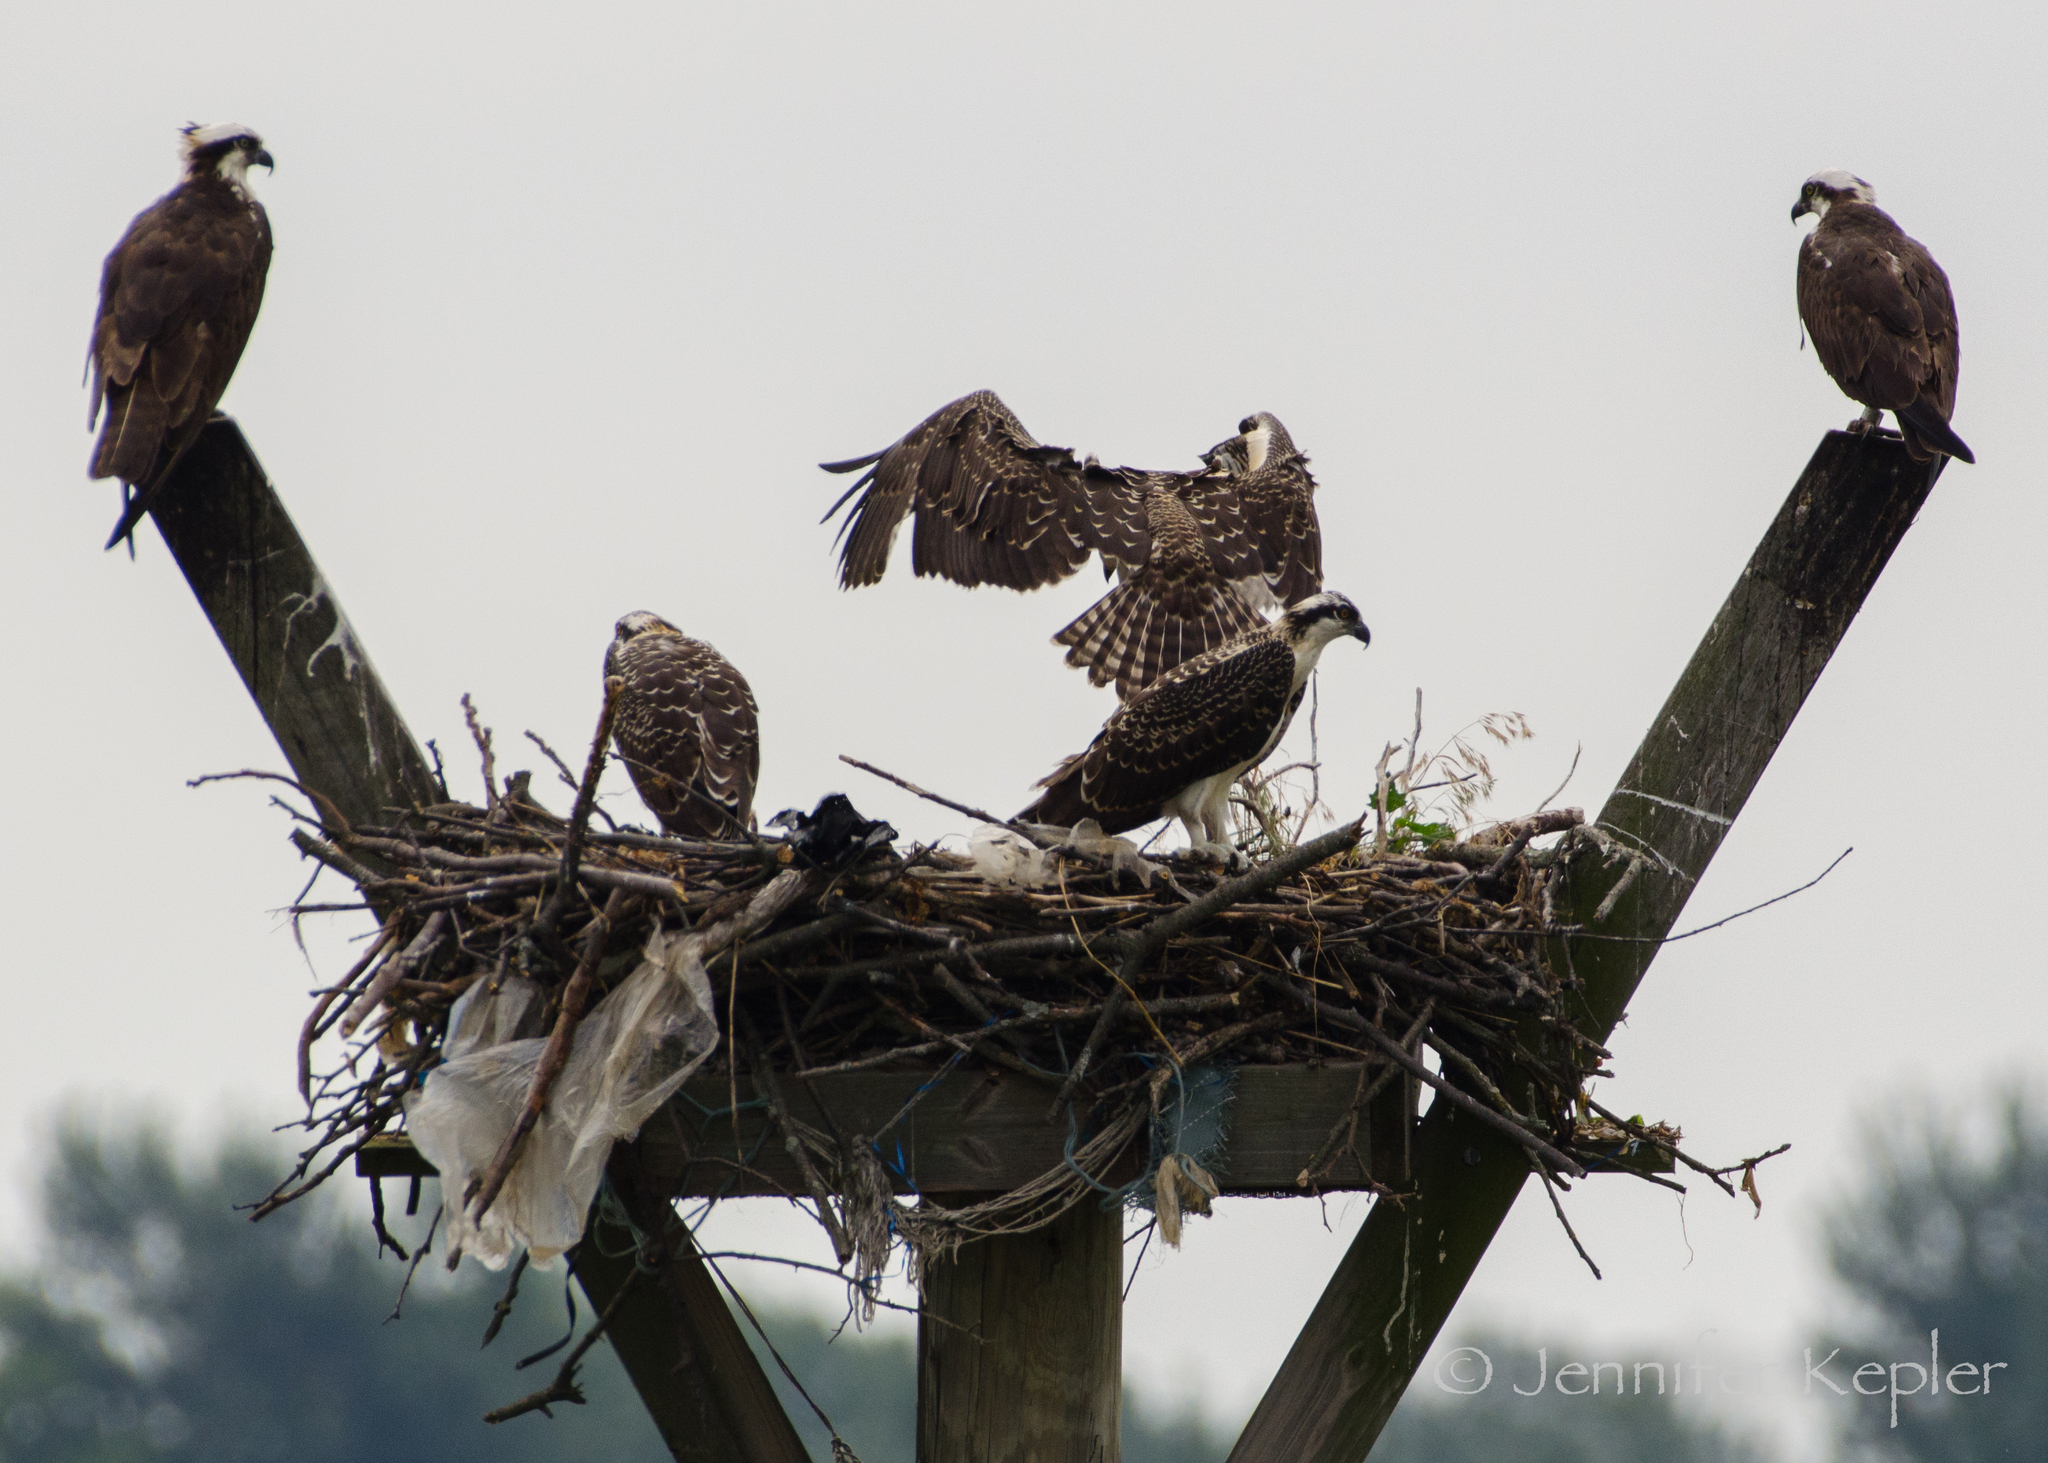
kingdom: Animalia
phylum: Chordata
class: Aves
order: Accipitriformes
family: Pandionidae
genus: Pandion
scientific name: Pandion haliaetus
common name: Osprey
